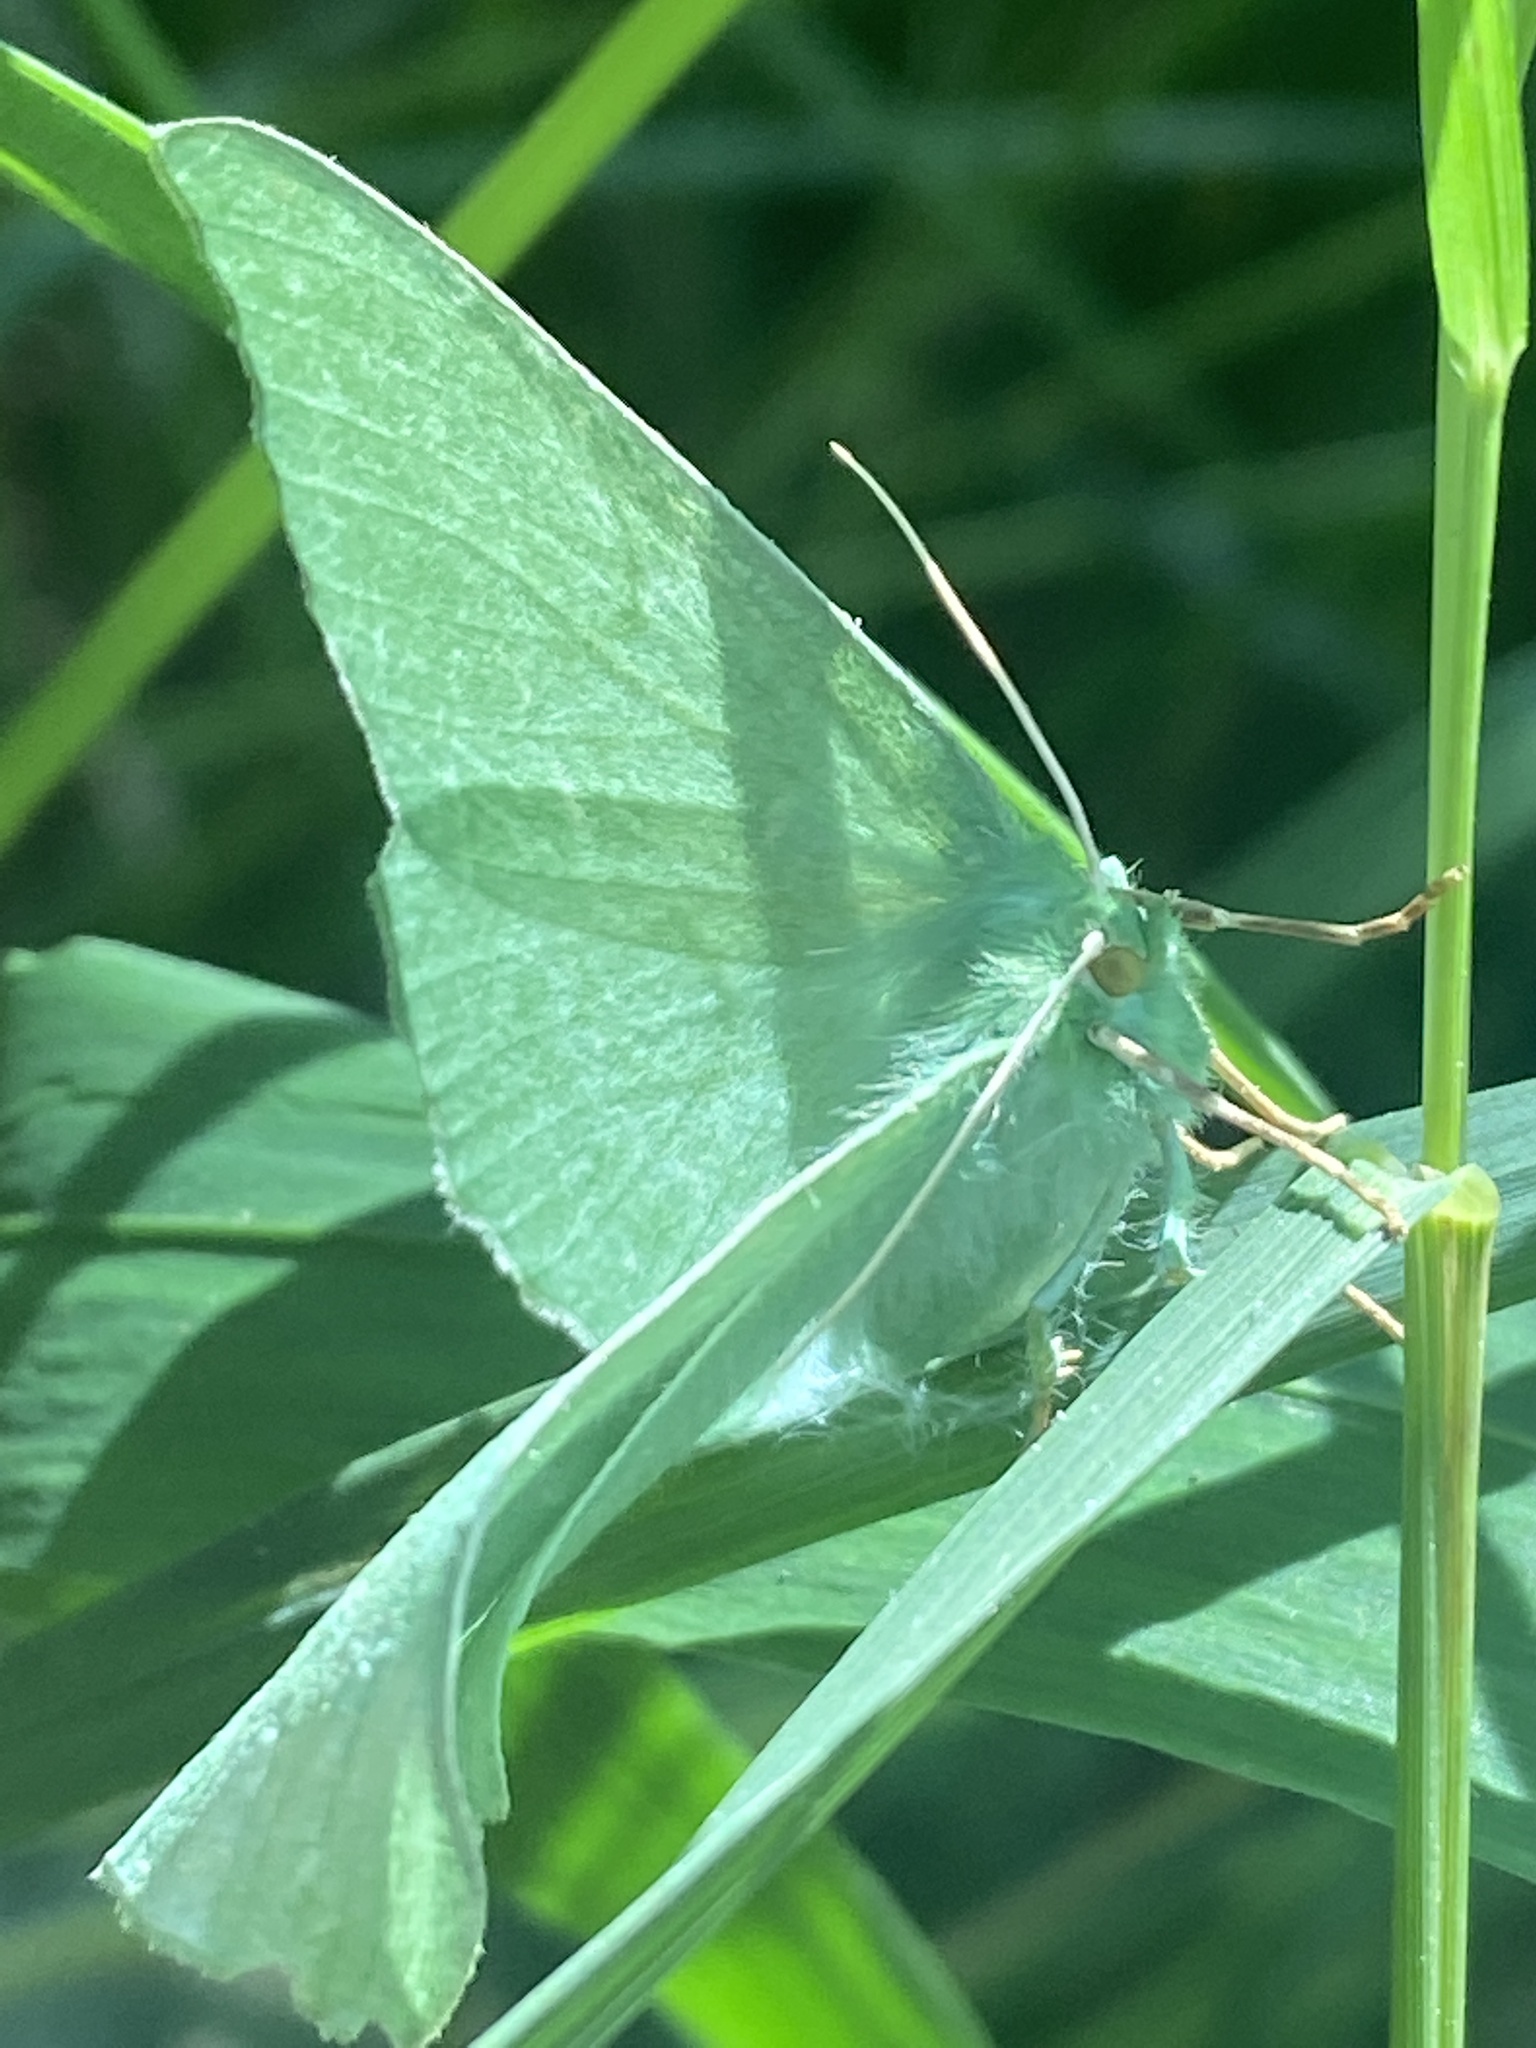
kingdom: Animalia
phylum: Arthropoda
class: Insecta
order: Lepidoptera
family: Geometridae
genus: Geometra
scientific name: Geometra papilionaria
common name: Large emerald
